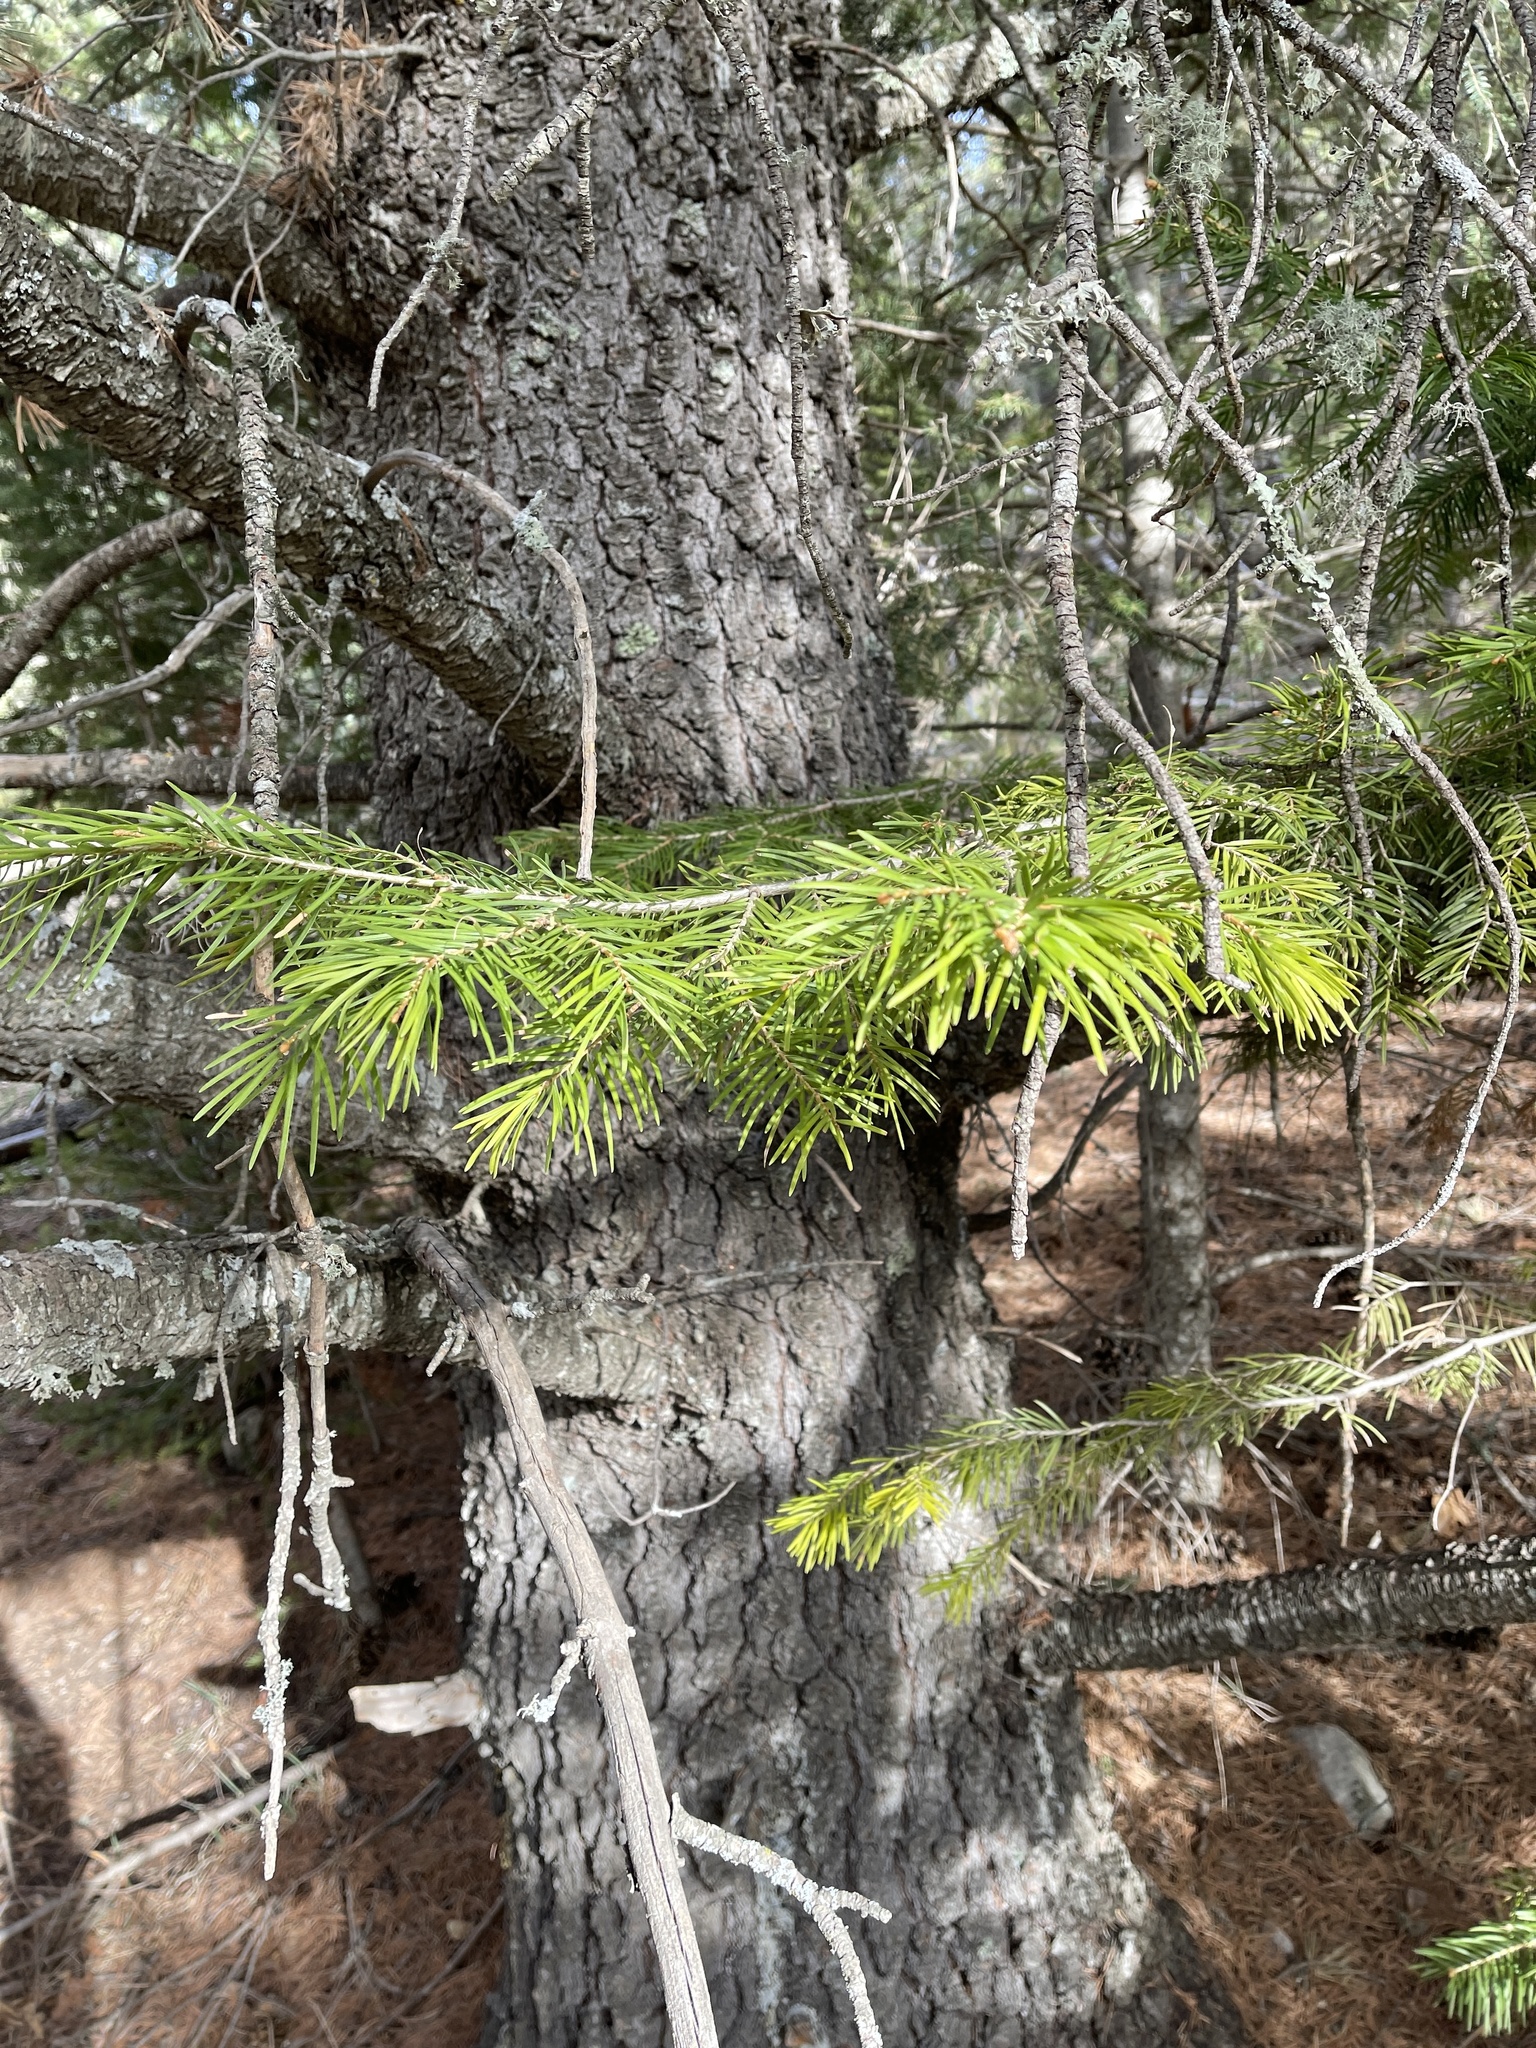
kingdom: Plantae
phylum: Tracheophyta
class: Pinopsida
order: Pinales
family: Pinaceae
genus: Abies
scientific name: Abies concolor
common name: Colorado fir
